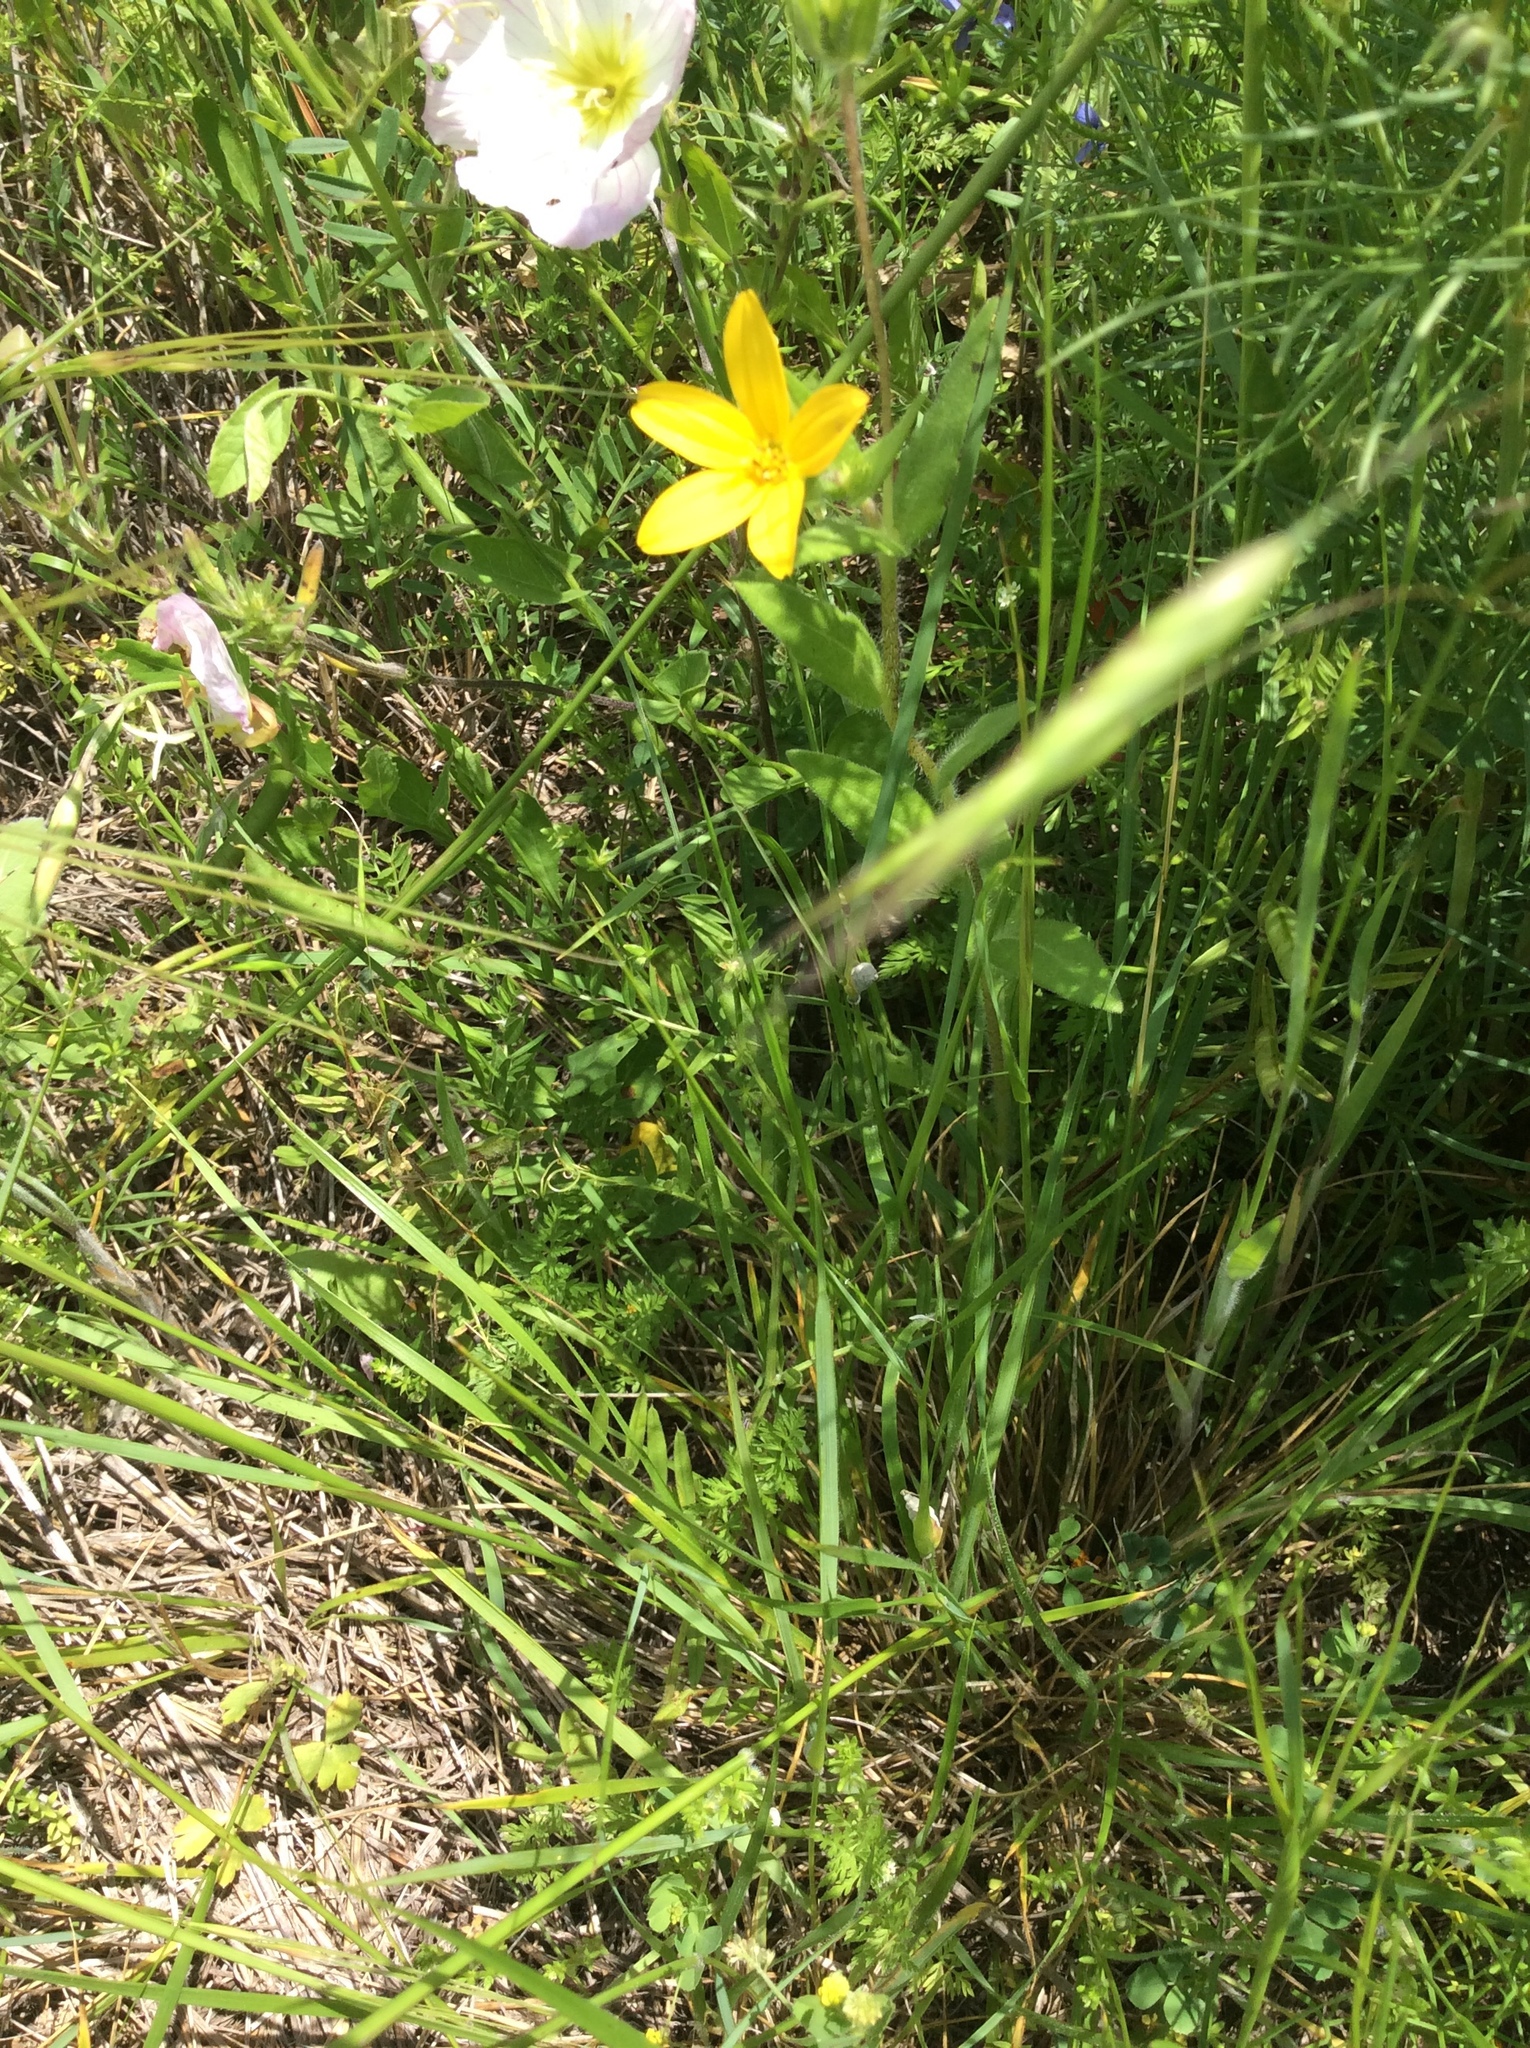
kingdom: Plantae
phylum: Tracheophyta
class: Magnoliopsida
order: Asterales
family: Asteraceae
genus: Lindheimera
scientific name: Lindheimera texana
